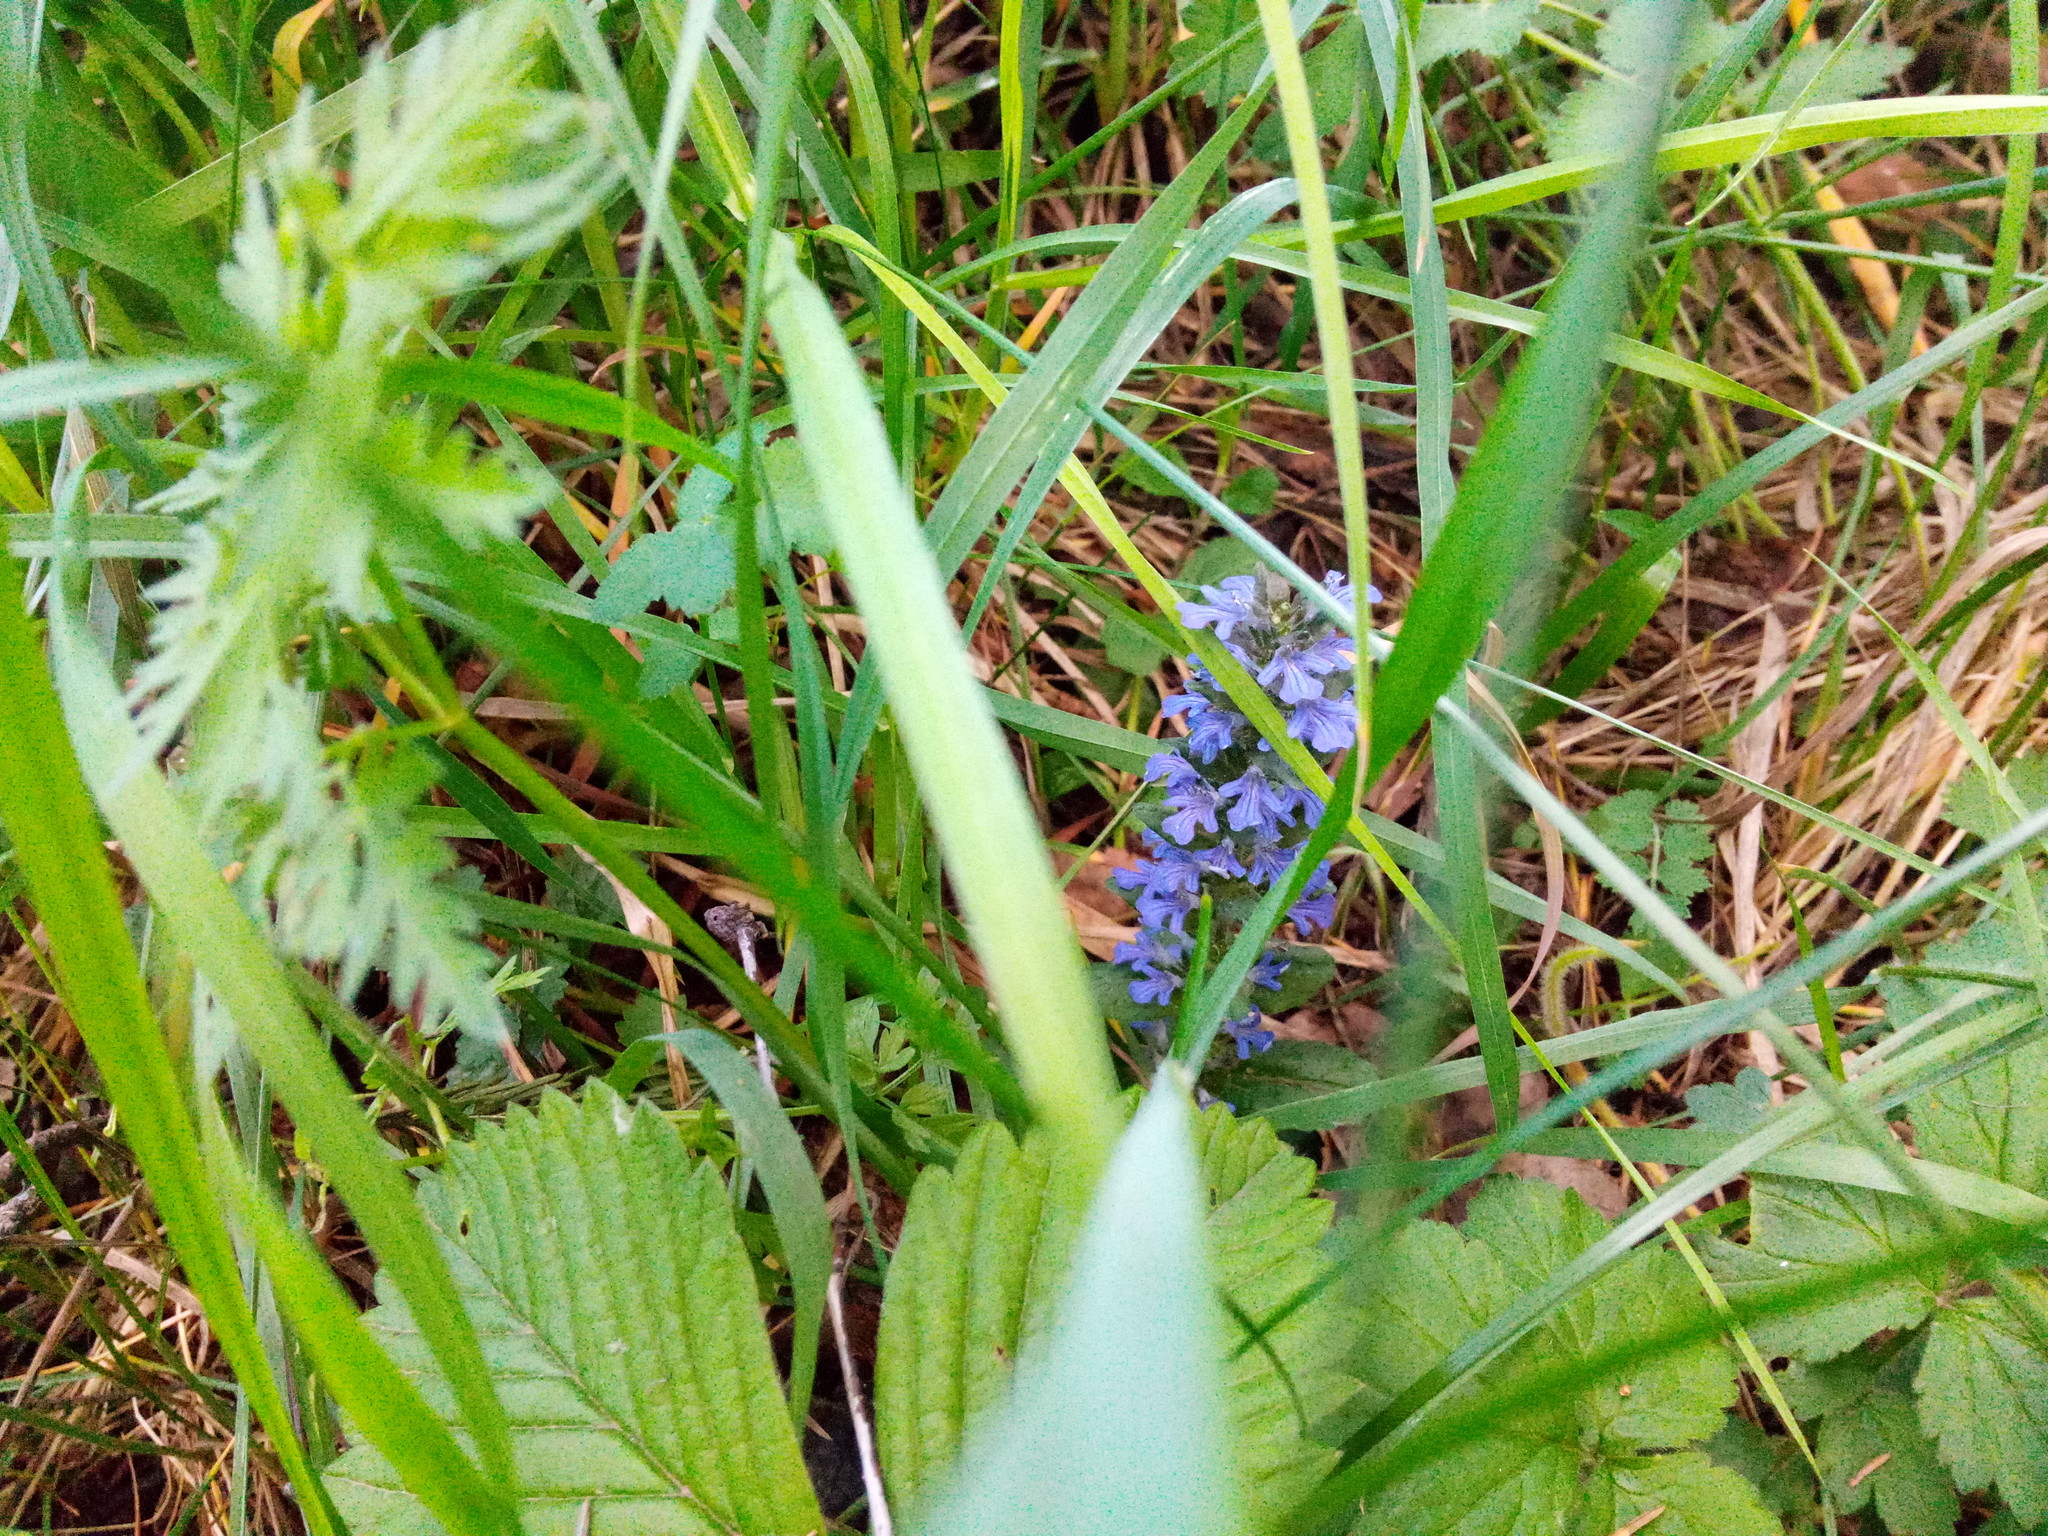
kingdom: Plantae
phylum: Tracheophyta
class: Magnoliopsida
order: Lamiales
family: Lamiaceae
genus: Ajuga
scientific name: Ajuga reptans
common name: Bugle
